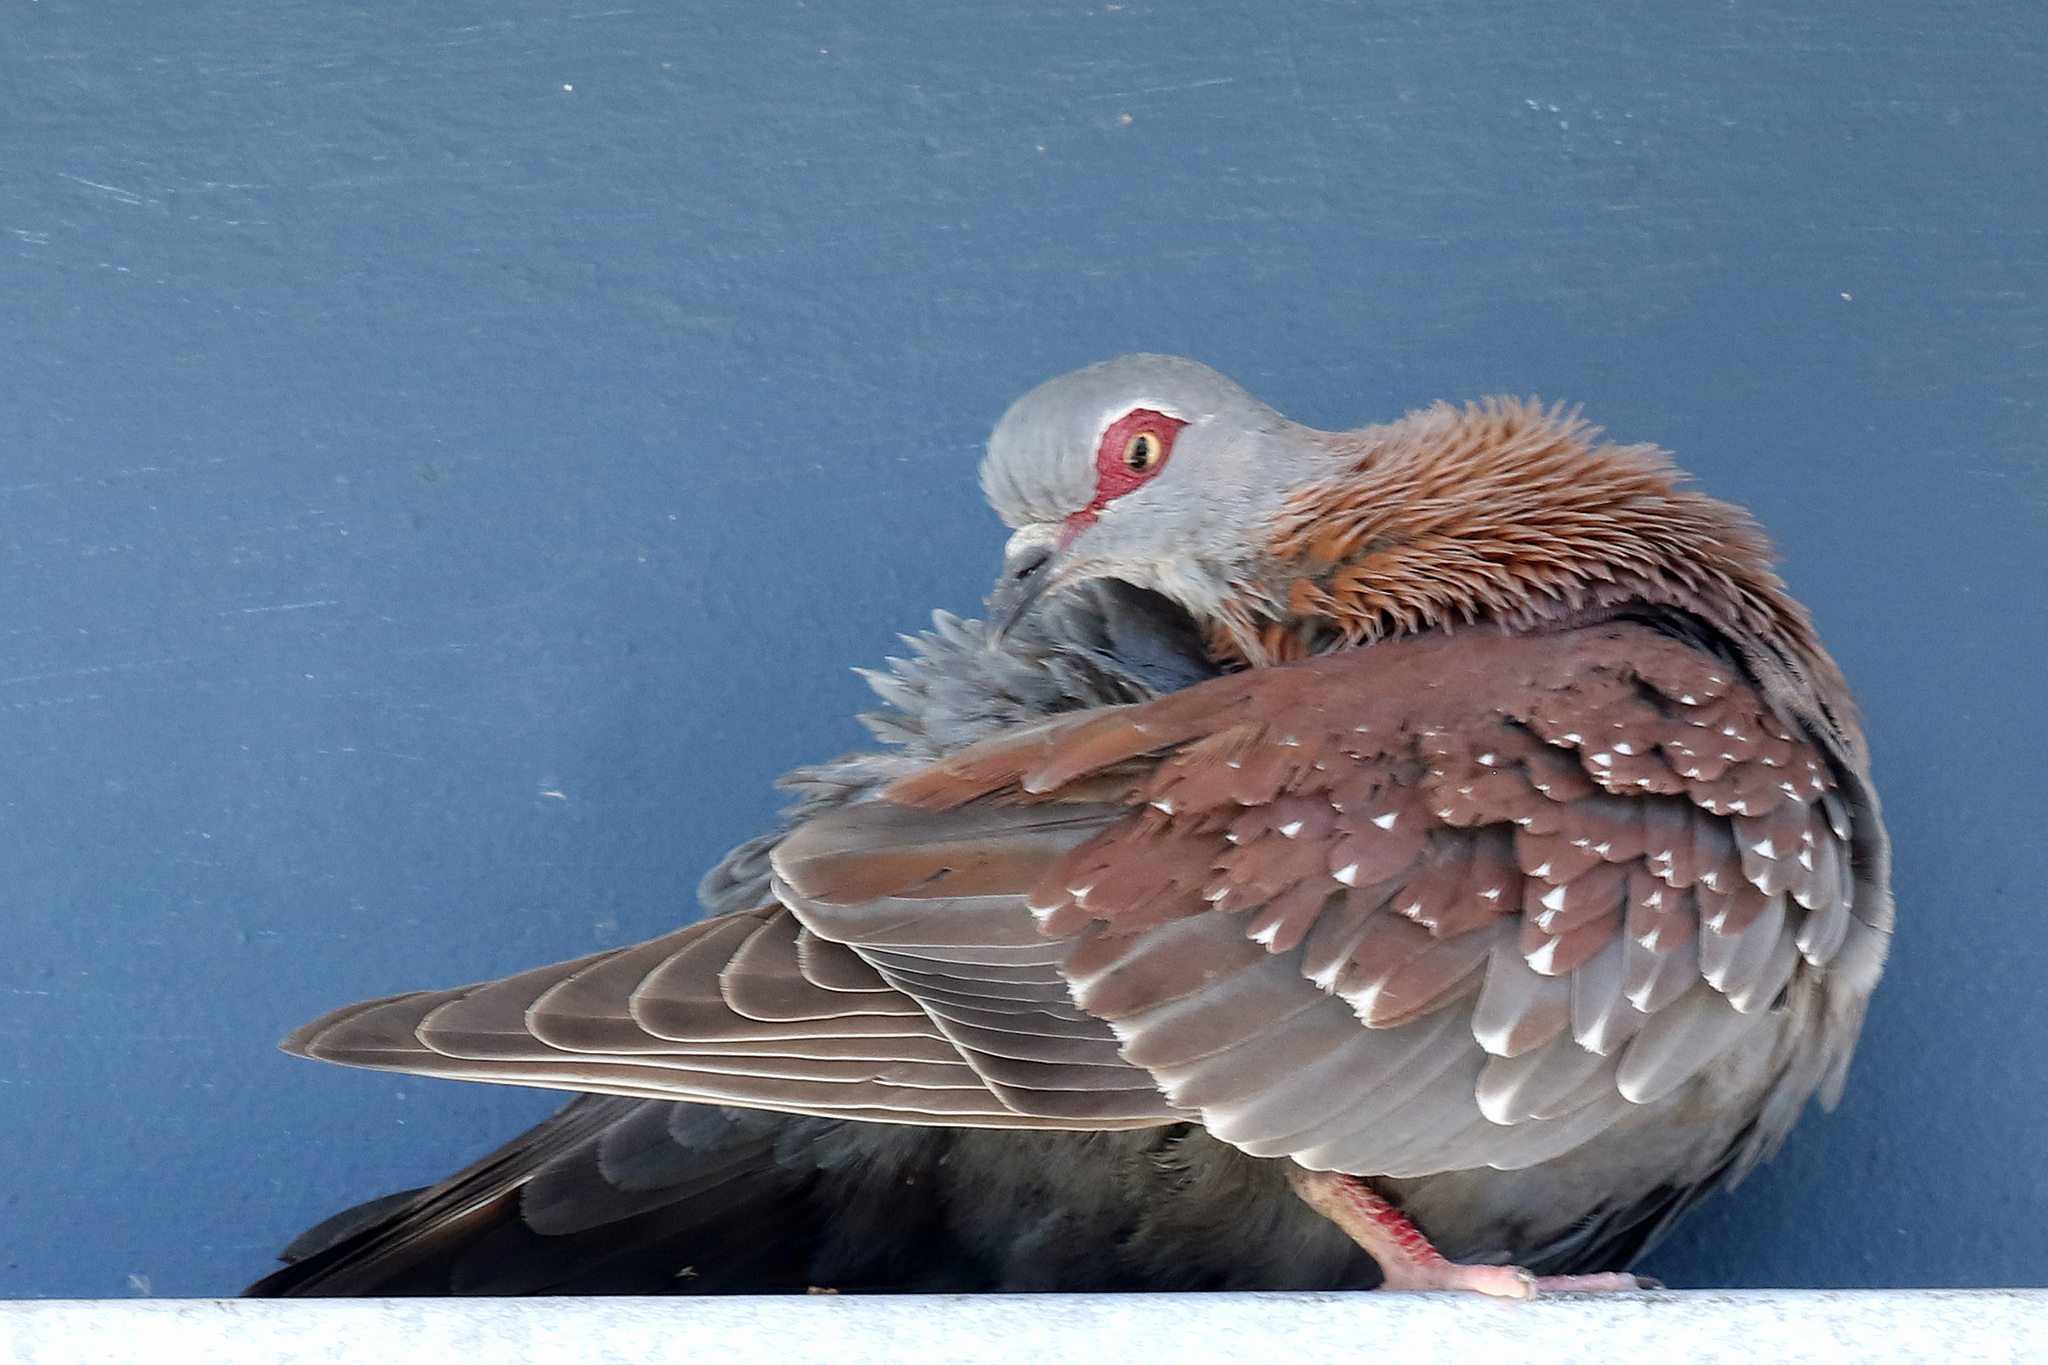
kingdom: Animalia
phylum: Chordata
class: Aves
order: Columbiformes
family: Columbidae
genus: Columba
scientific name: Columba guinea
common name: Speckled pigeon
